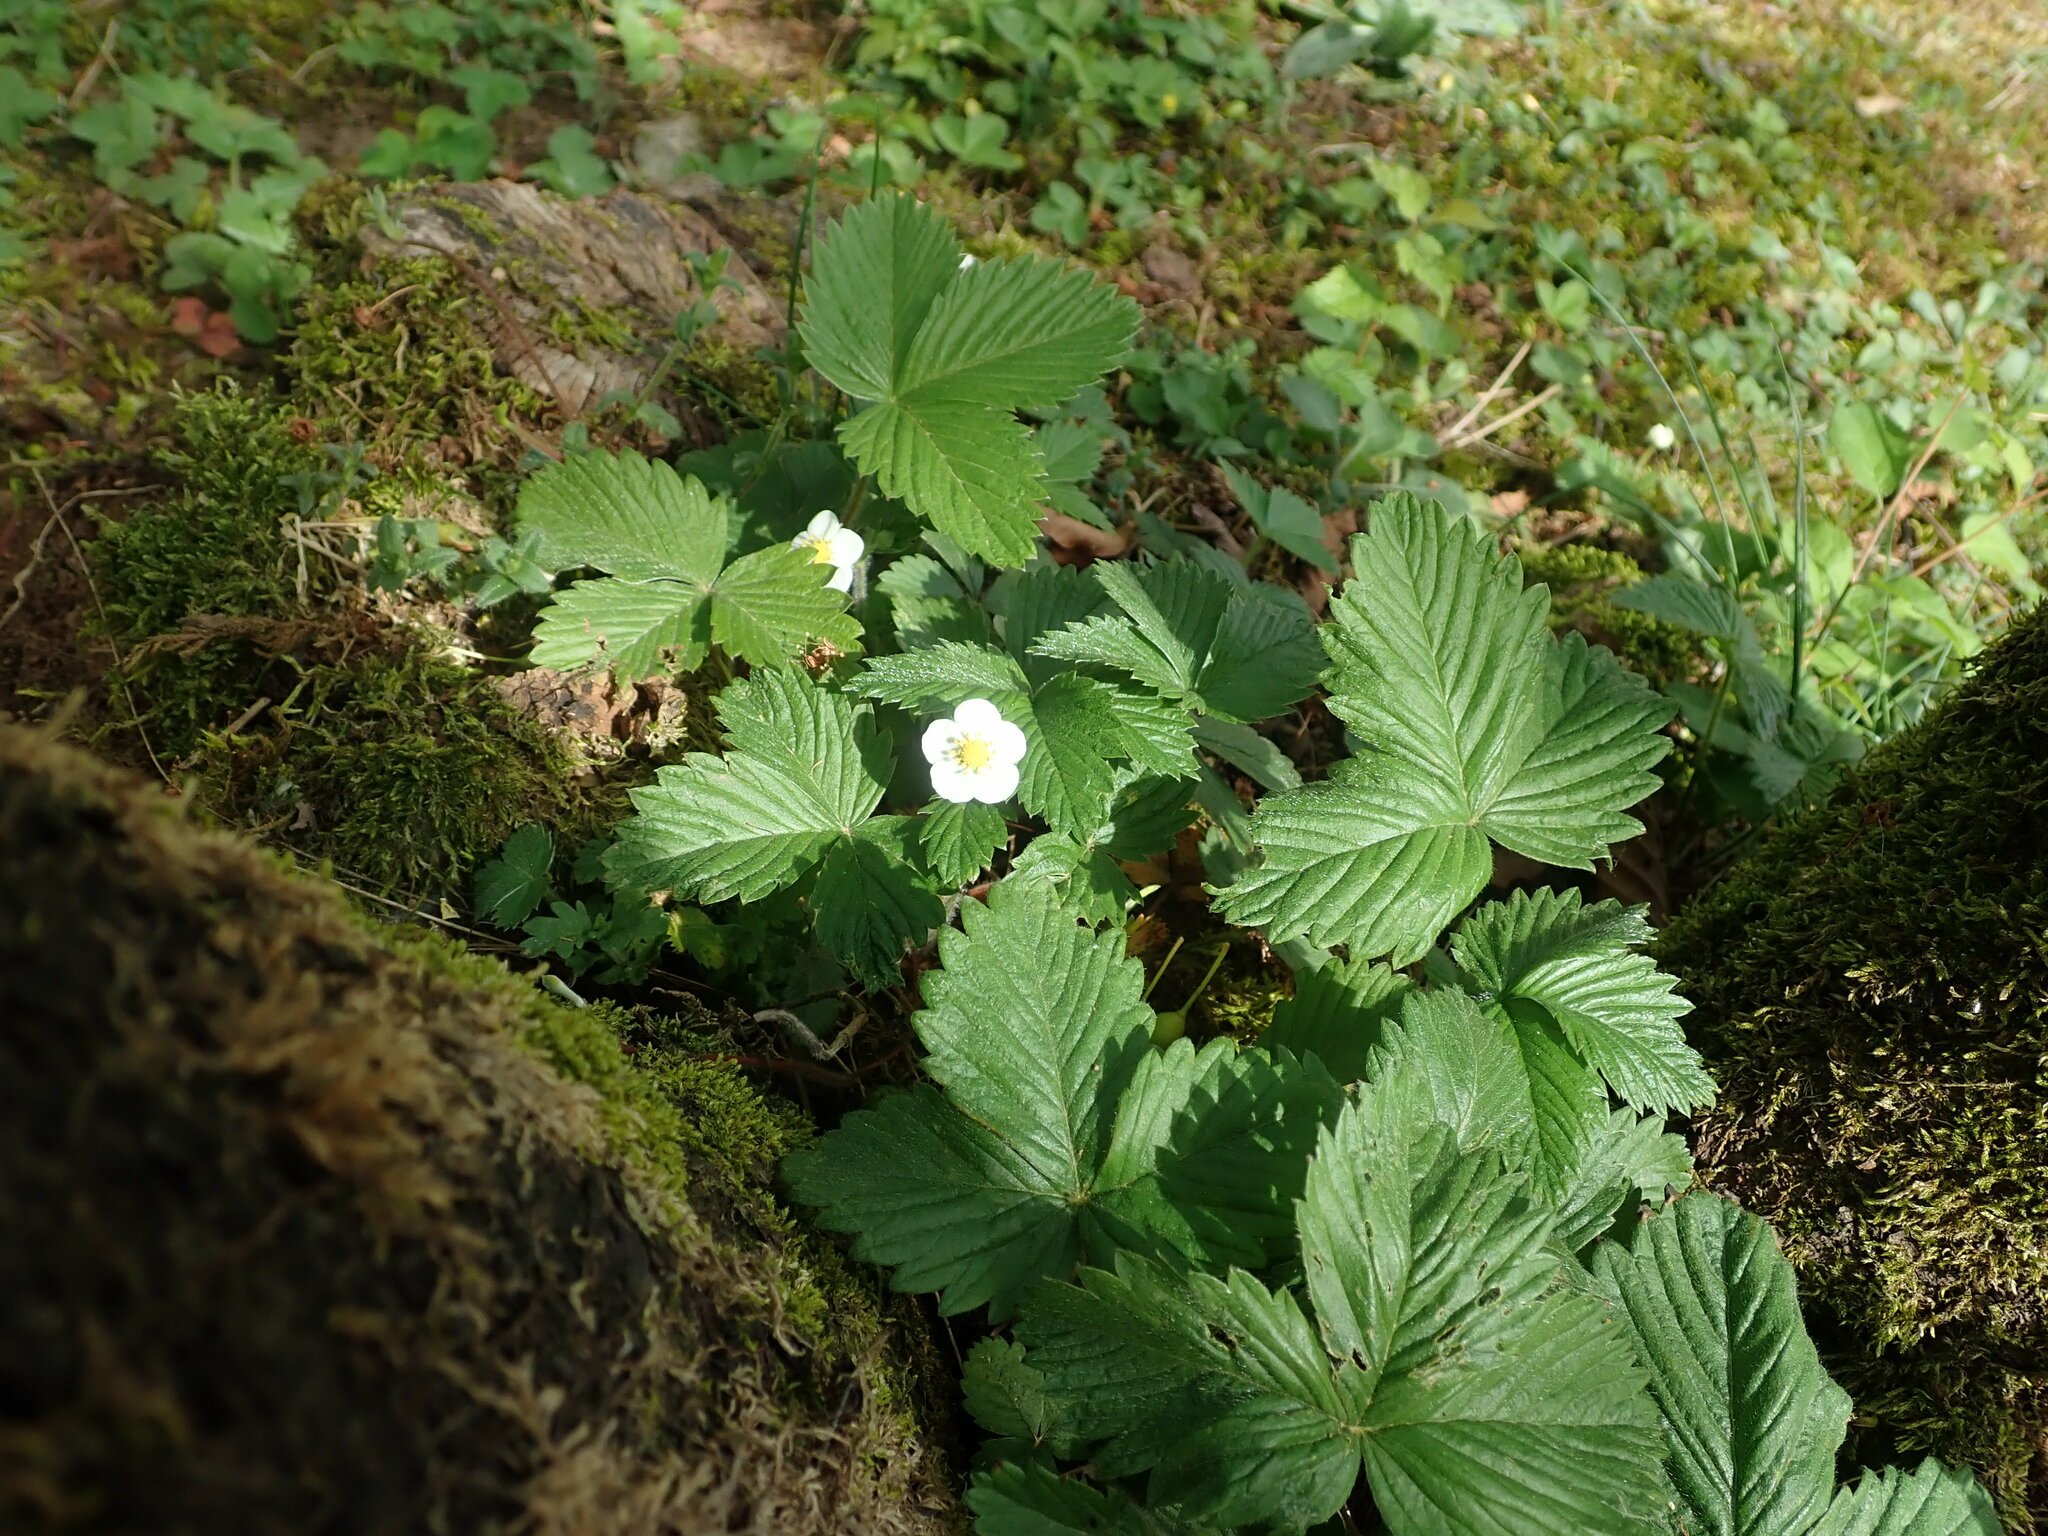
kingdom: Plantae
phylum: Tracheophyta
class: Magnoliopsida
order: Rosales
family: Rosaceae
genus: Fragaria
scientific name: Fragaria vesca
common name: Wild strawberry
